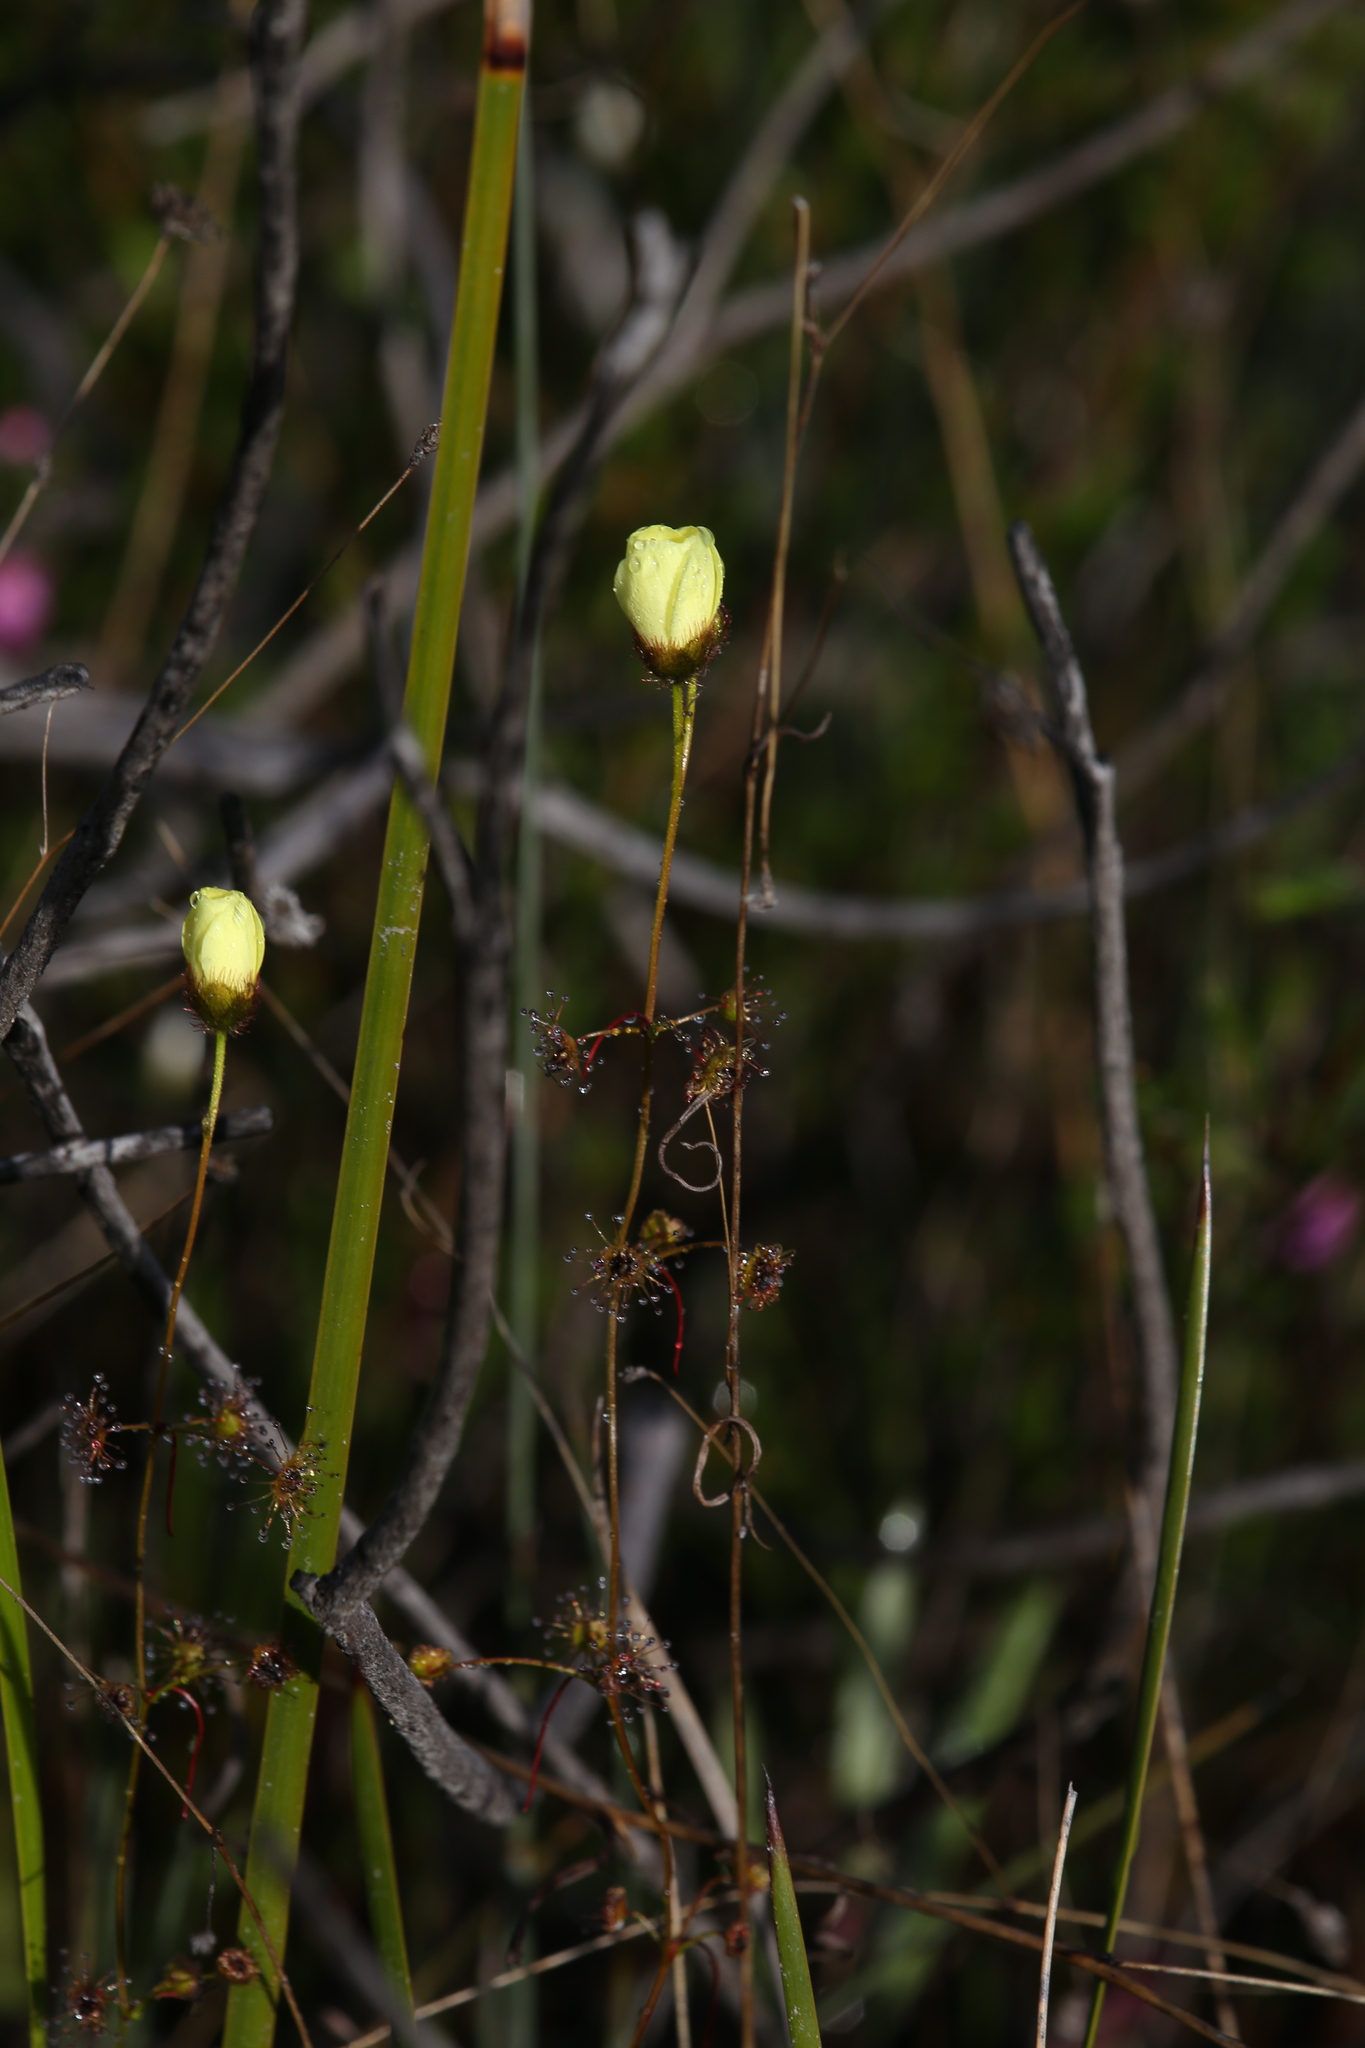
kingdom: Plantae
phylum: Tracheophyta
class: Magnoliopsida
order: Caryophyllales
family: Droseraceae
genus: Drosera
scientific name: Drosera intricata
